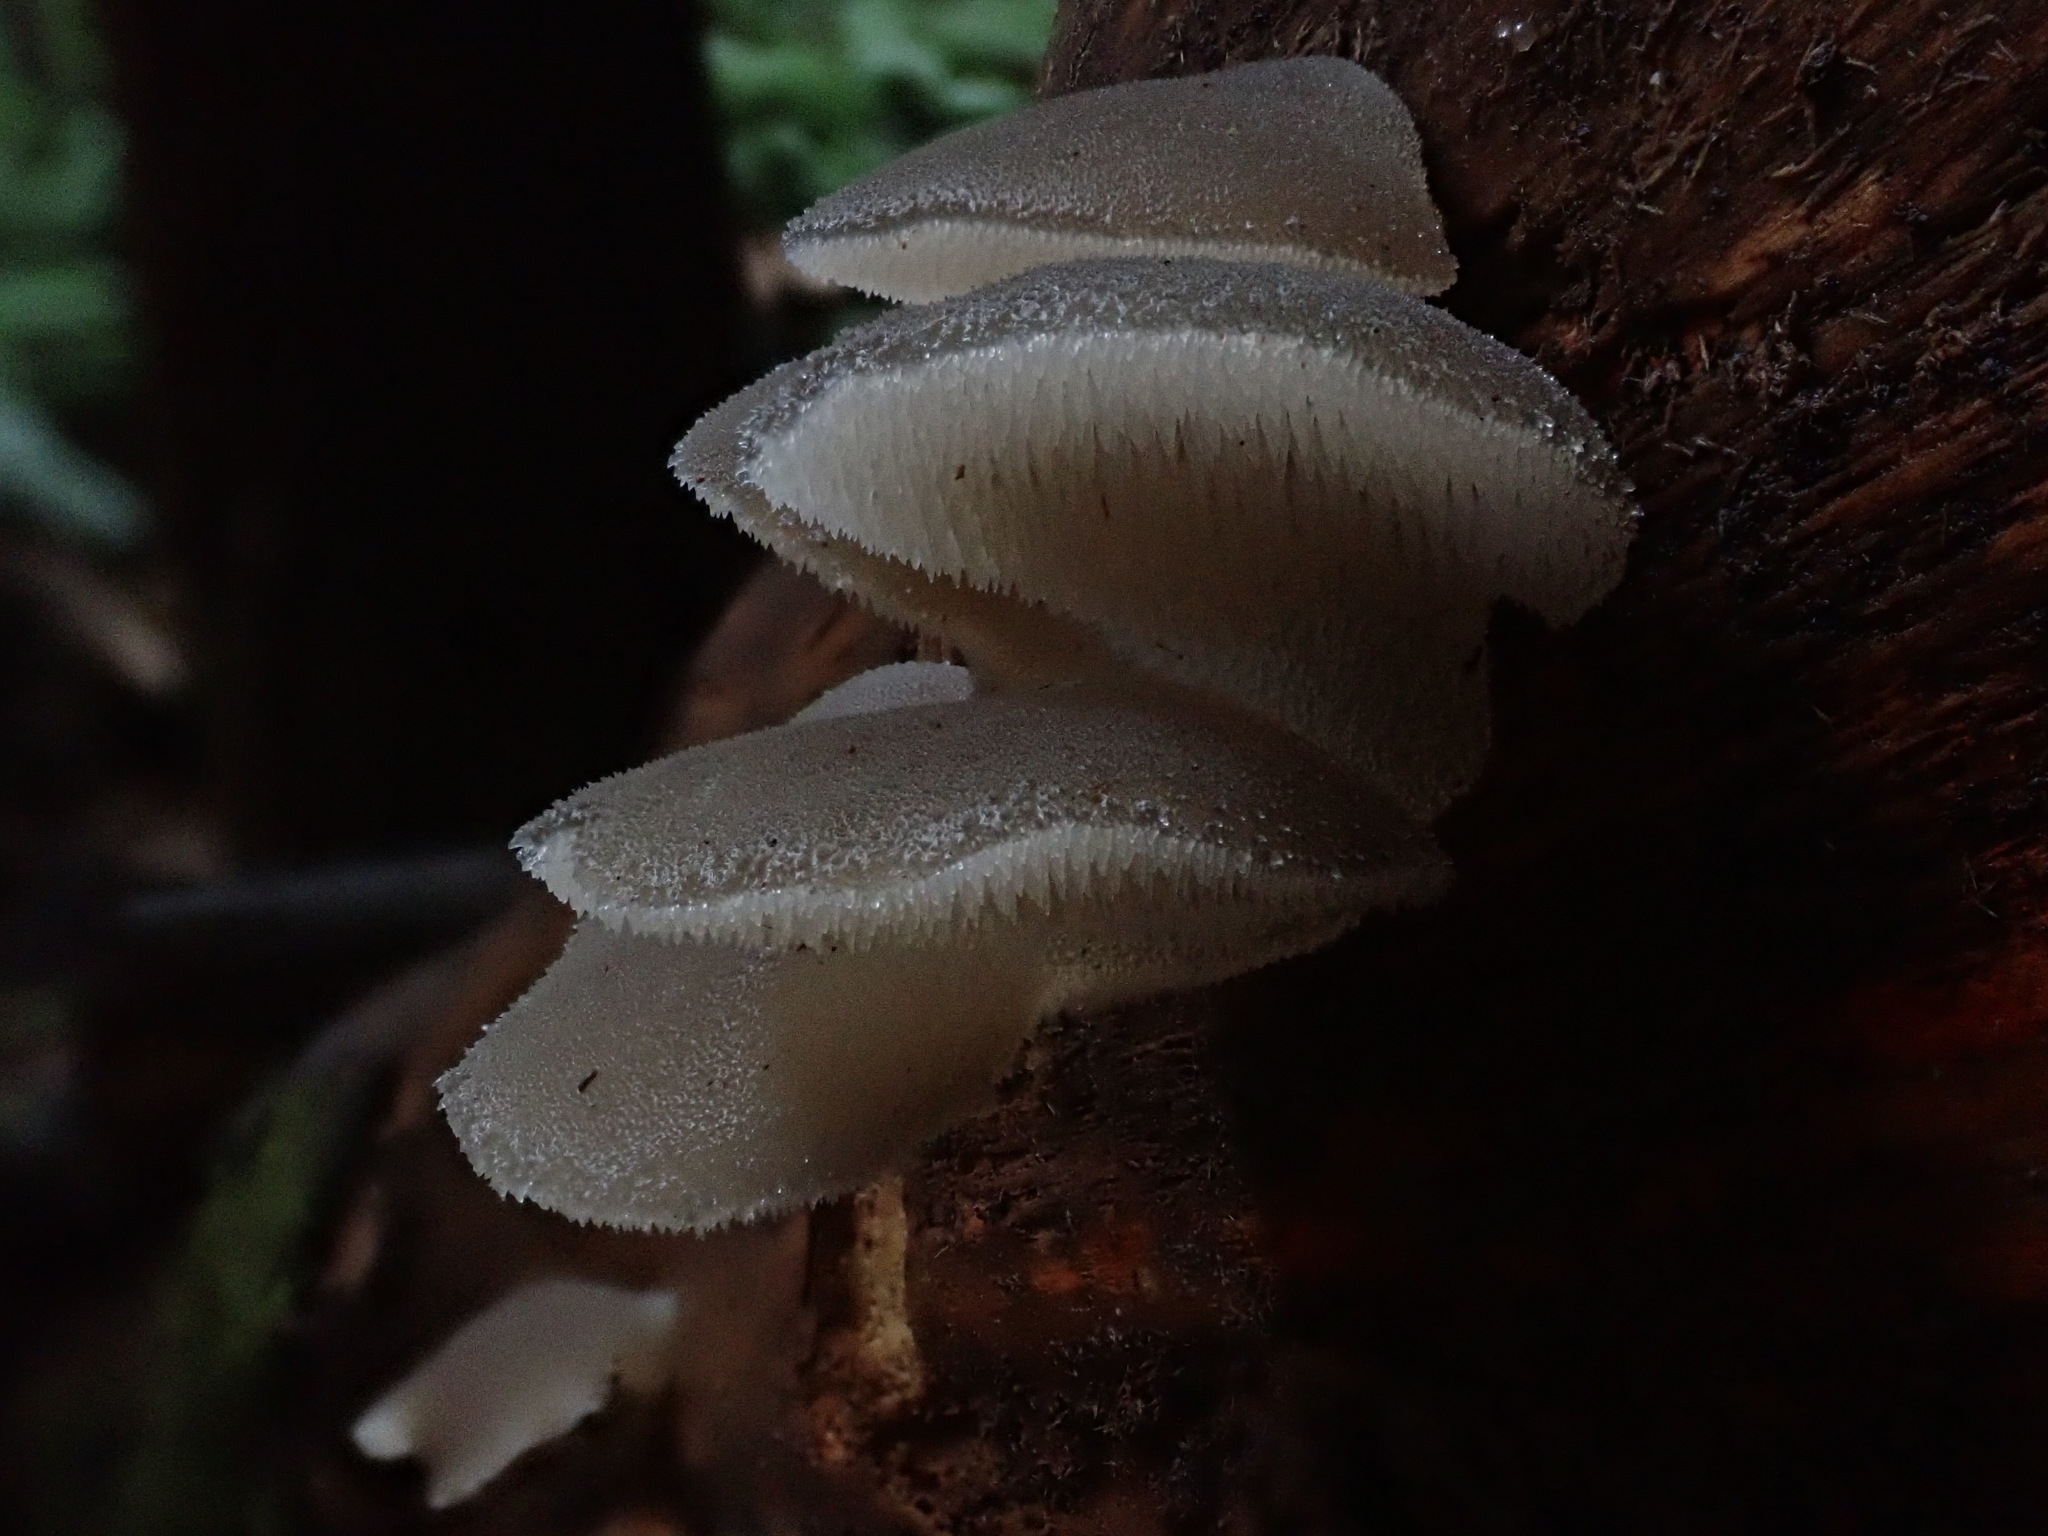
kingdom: Fungi
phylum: Basidiomycota
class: Agaricomycetes
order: Auriculariales
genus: Pseudohydnum
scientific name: Pseudohydnum gelatinosum
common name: Jelly tongue
